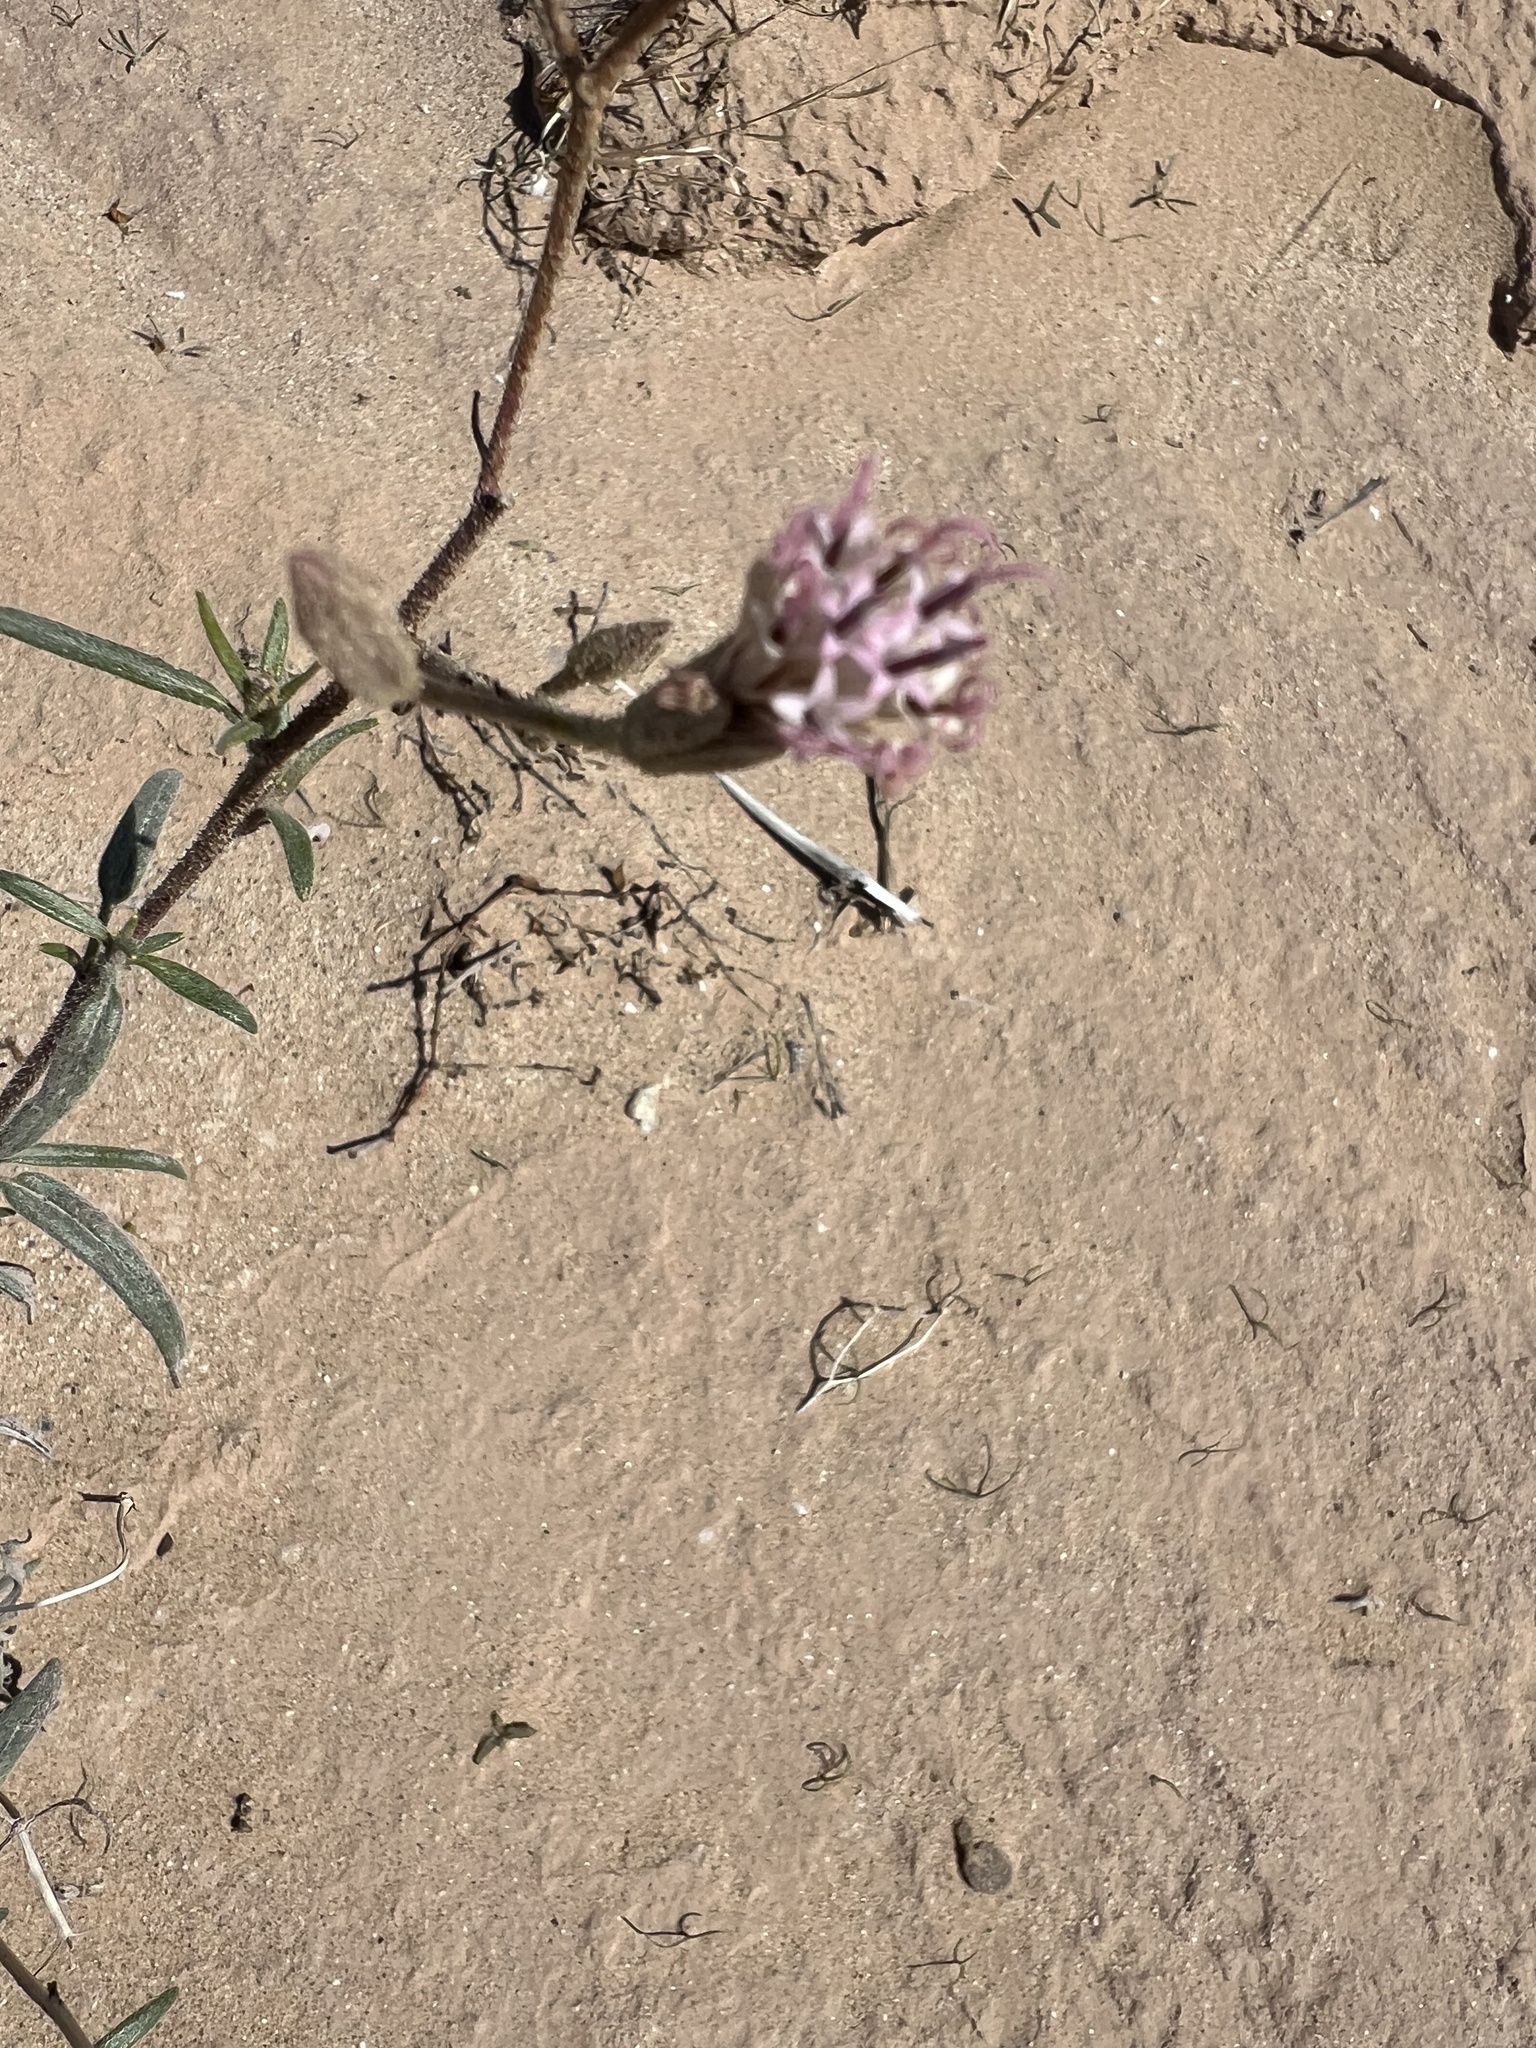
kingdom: Plantae
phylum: Tracheophyta
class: Magnoliopsida
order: Asterales
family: Asteraceae
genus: Palafoxia
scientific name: Palafoxia arida
